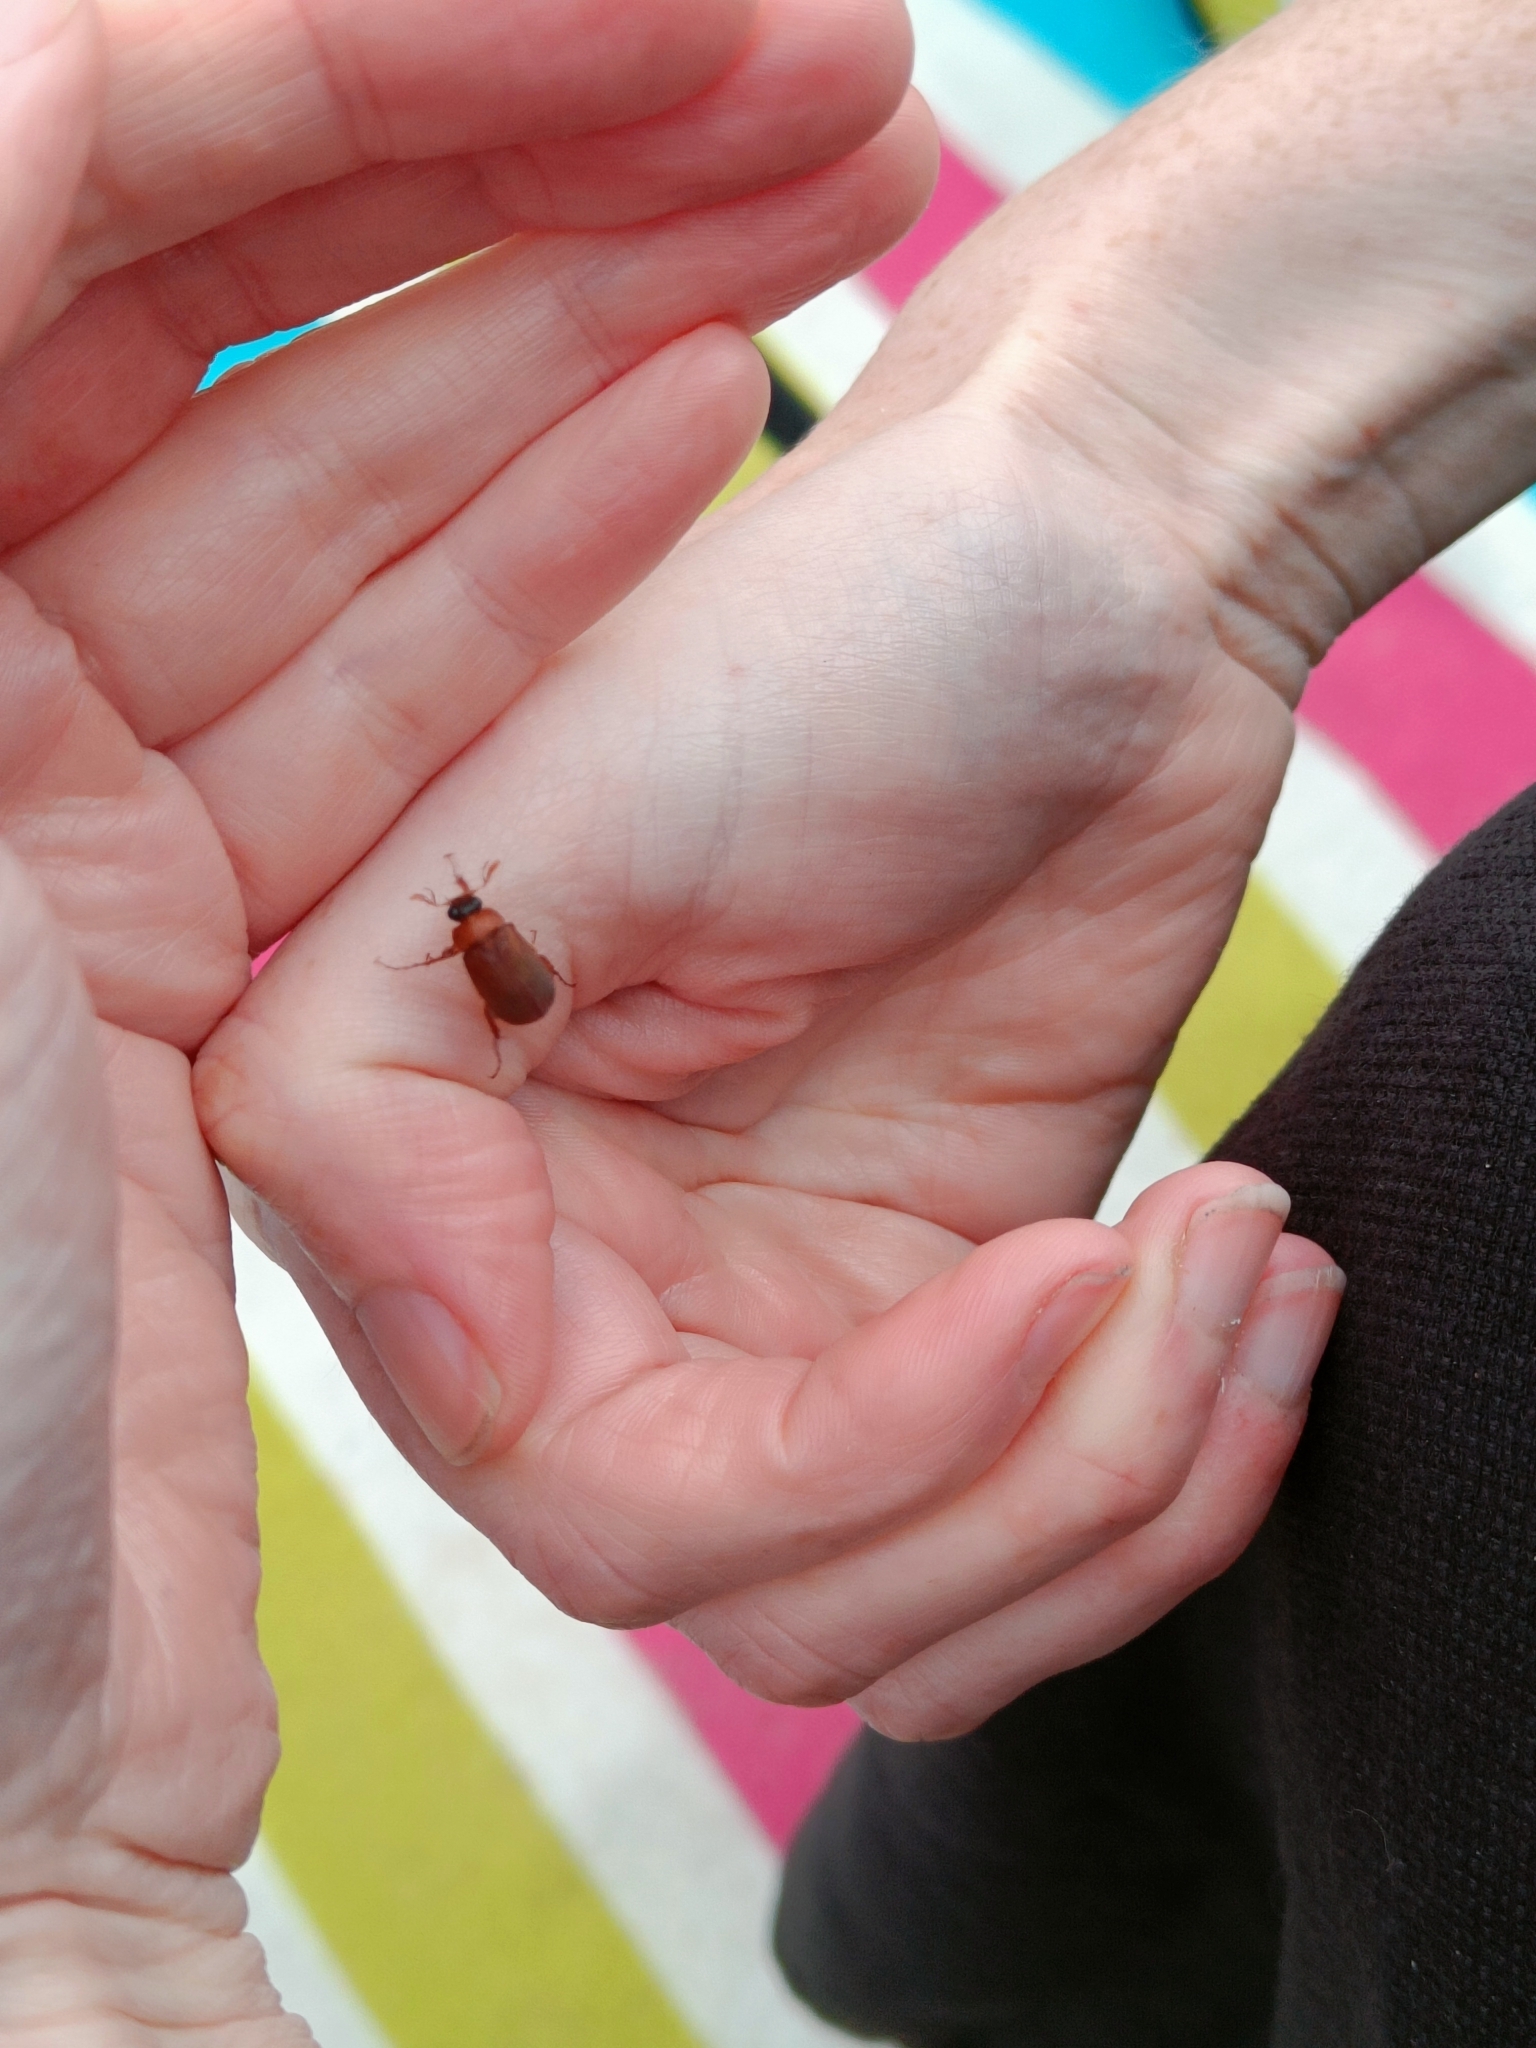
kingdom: Animalia
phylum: Arthropoda
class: Insecta
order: Coleoptera
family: Scarabaeidae
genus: Serica
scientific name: Serica brunnea
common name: Brown chafer
